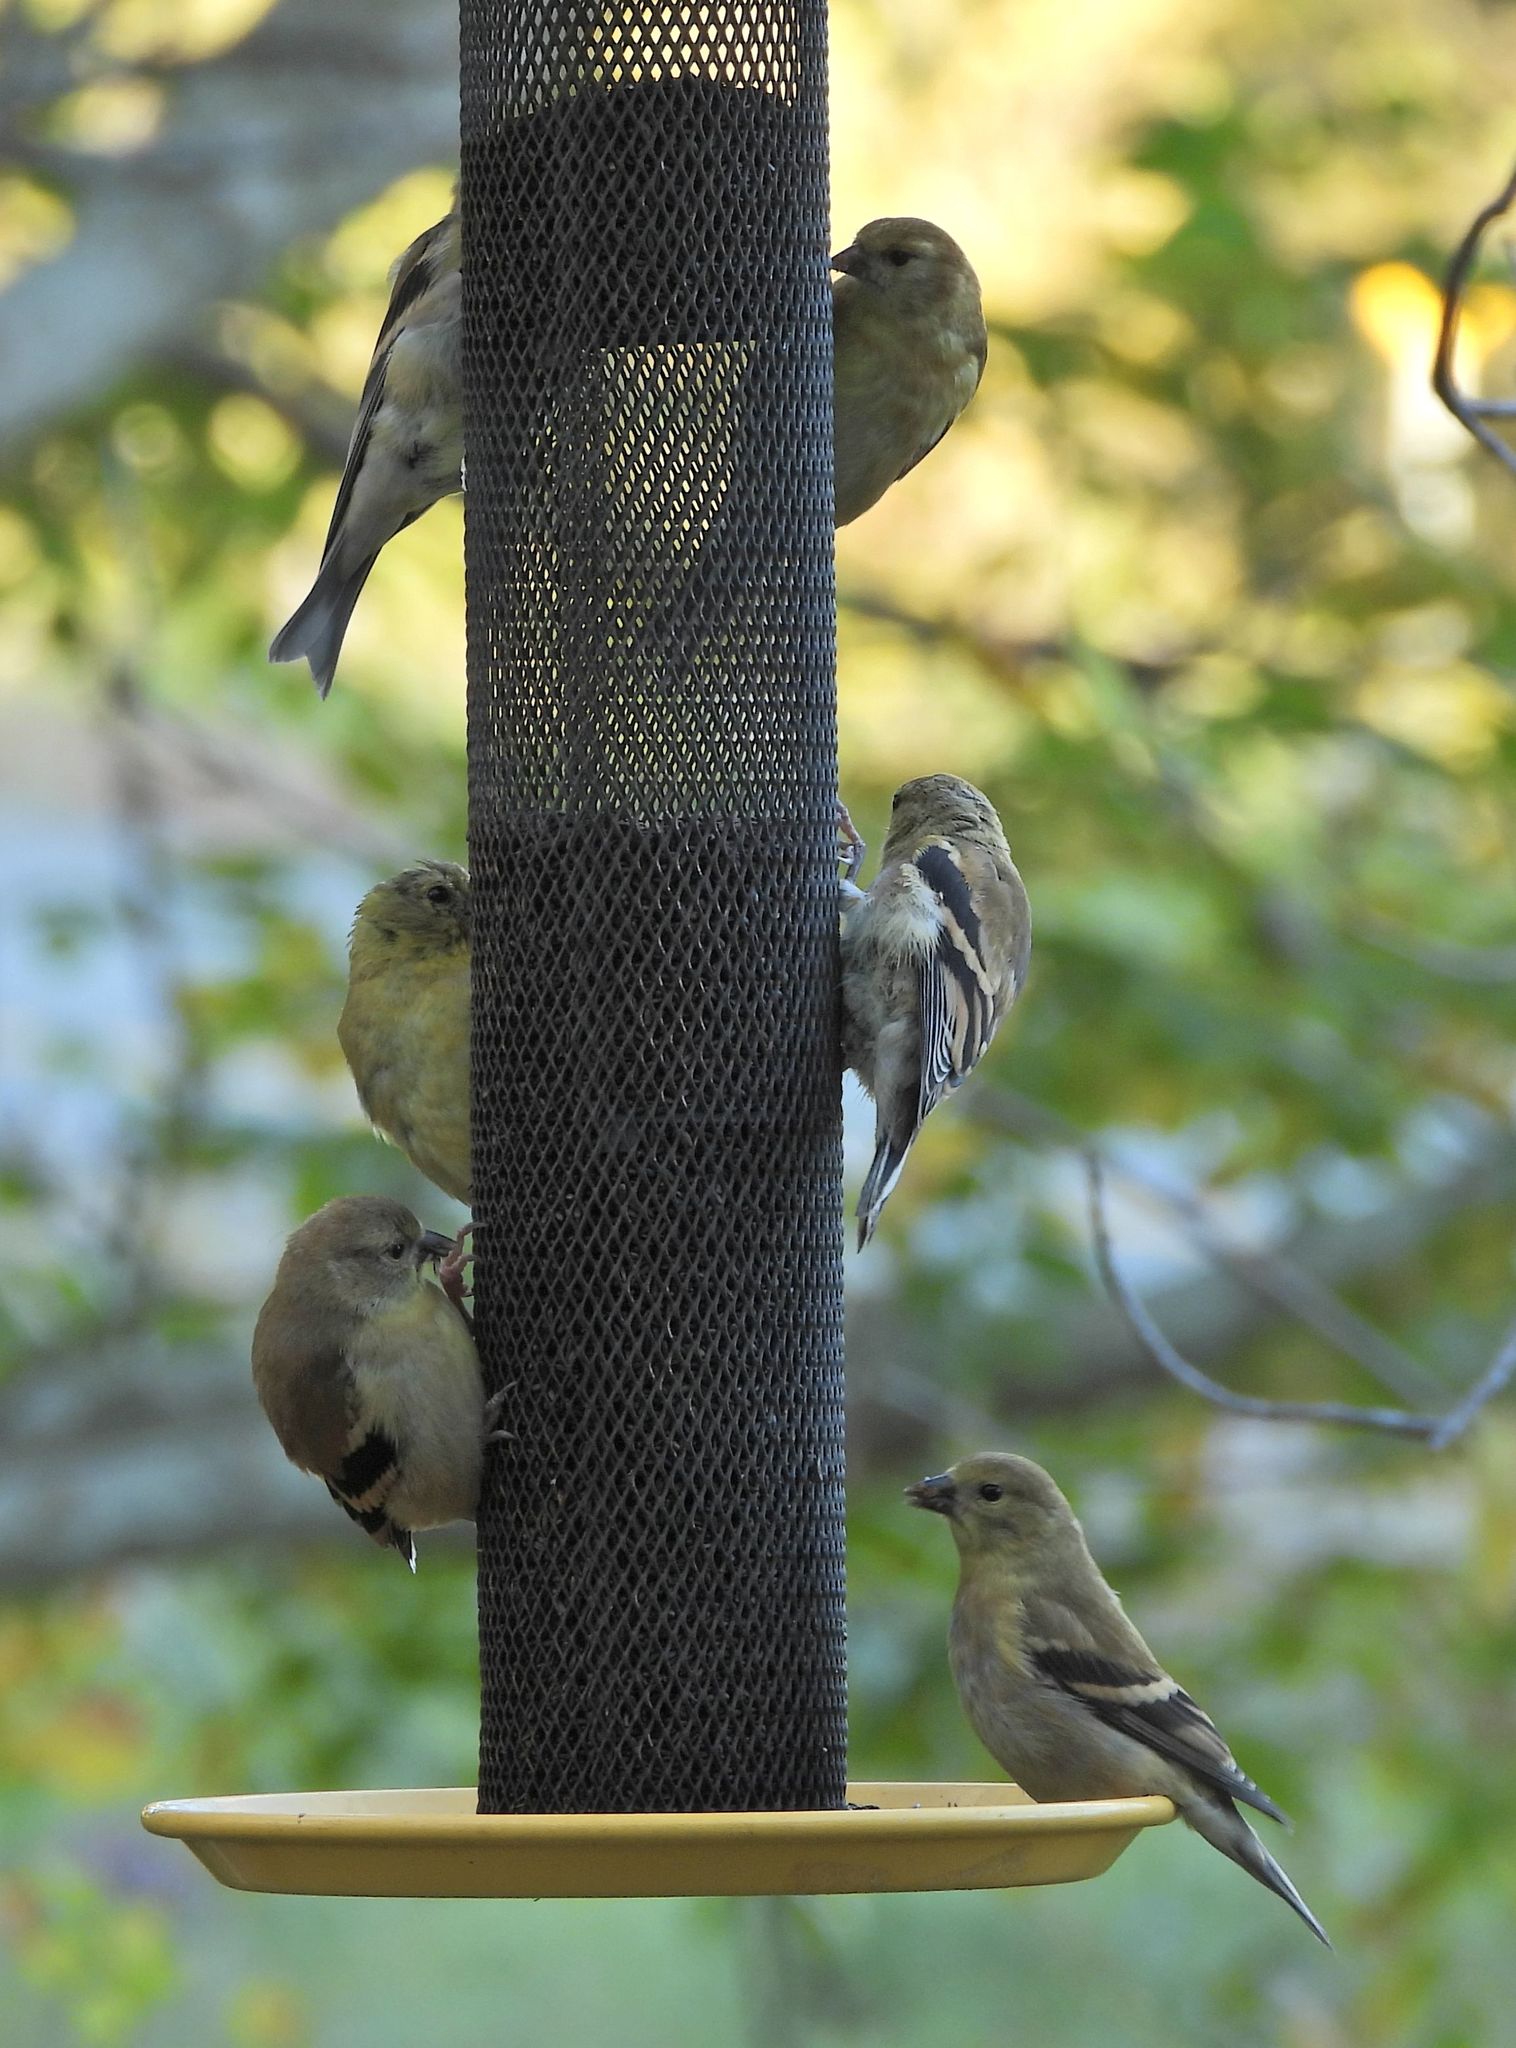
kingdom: Animalia
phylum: Chordata
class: Aves
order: Passeriformes
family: Fringillidae
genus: Spinus
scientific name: Spinus tristis
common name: American goldfinch
